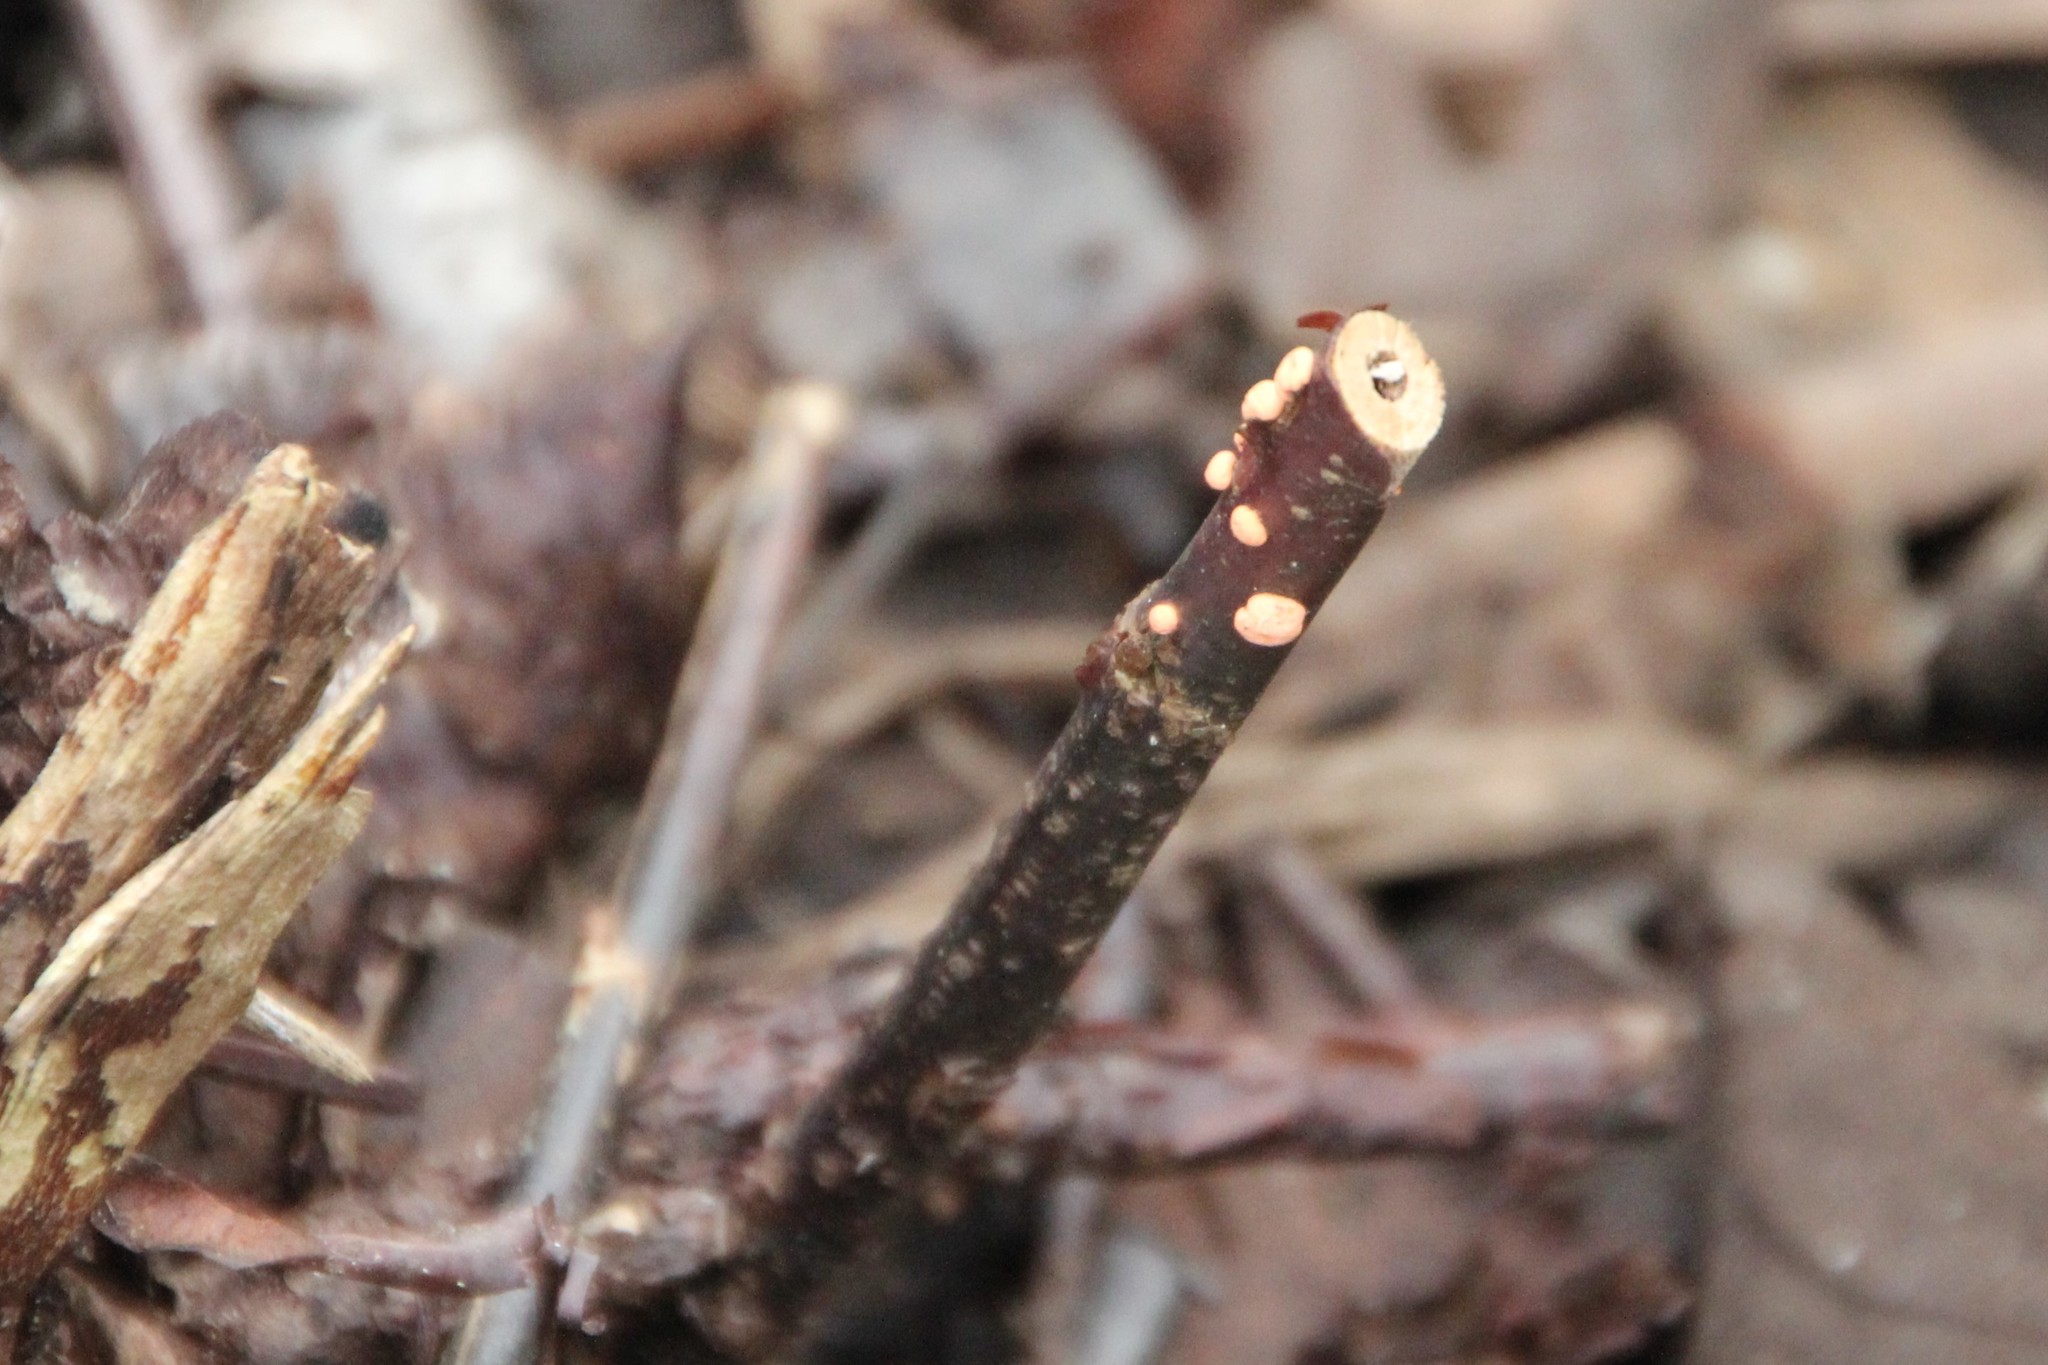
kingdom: Fungi
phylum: Ascomycota
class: Sordariomycetes
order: Hypocreales
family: Nectriaceae
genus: Nectria
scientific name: Nectria cinnabarina
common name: Coral spot
